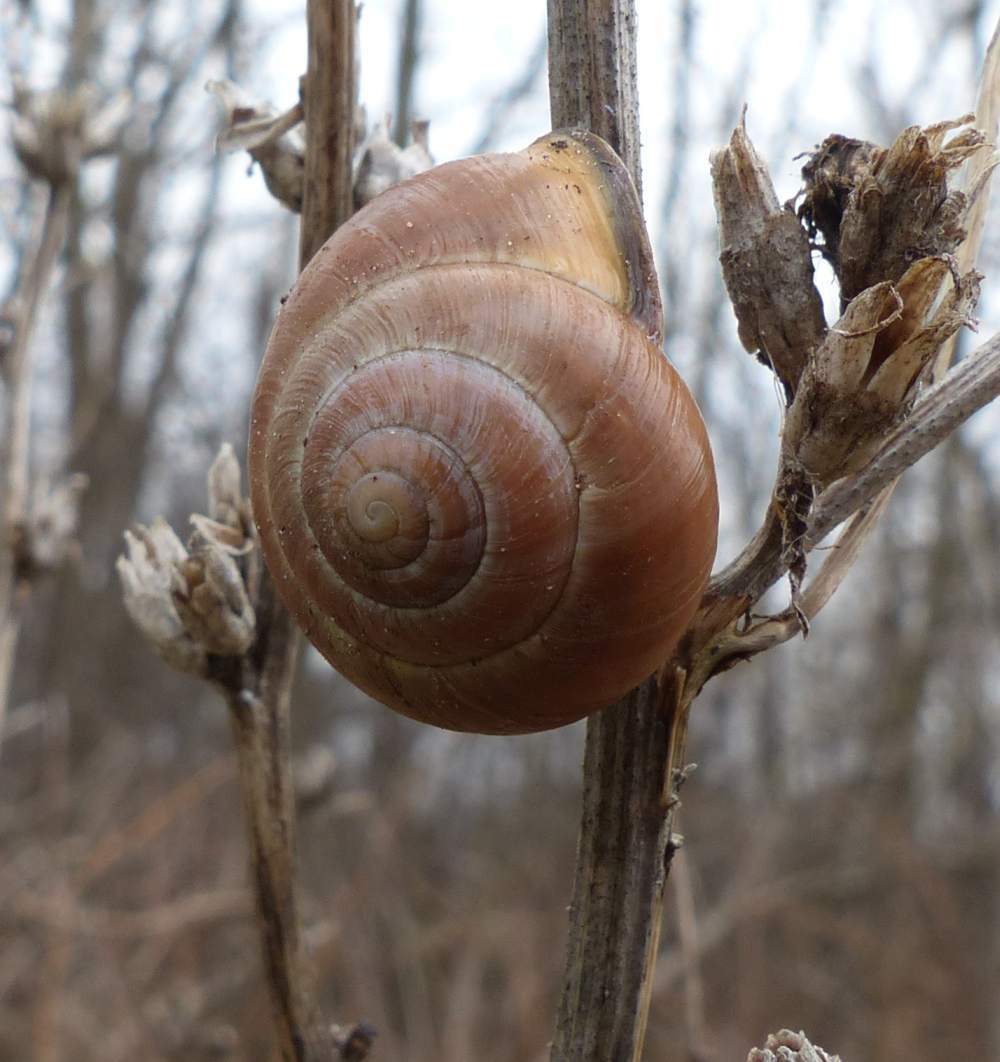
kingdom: Animalia
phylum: Mollusca
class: Gastropoda
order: Stylommatophora
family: Helicidae
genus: Cepaea
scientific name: Cepaea nemoralis
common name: Grovesnail
